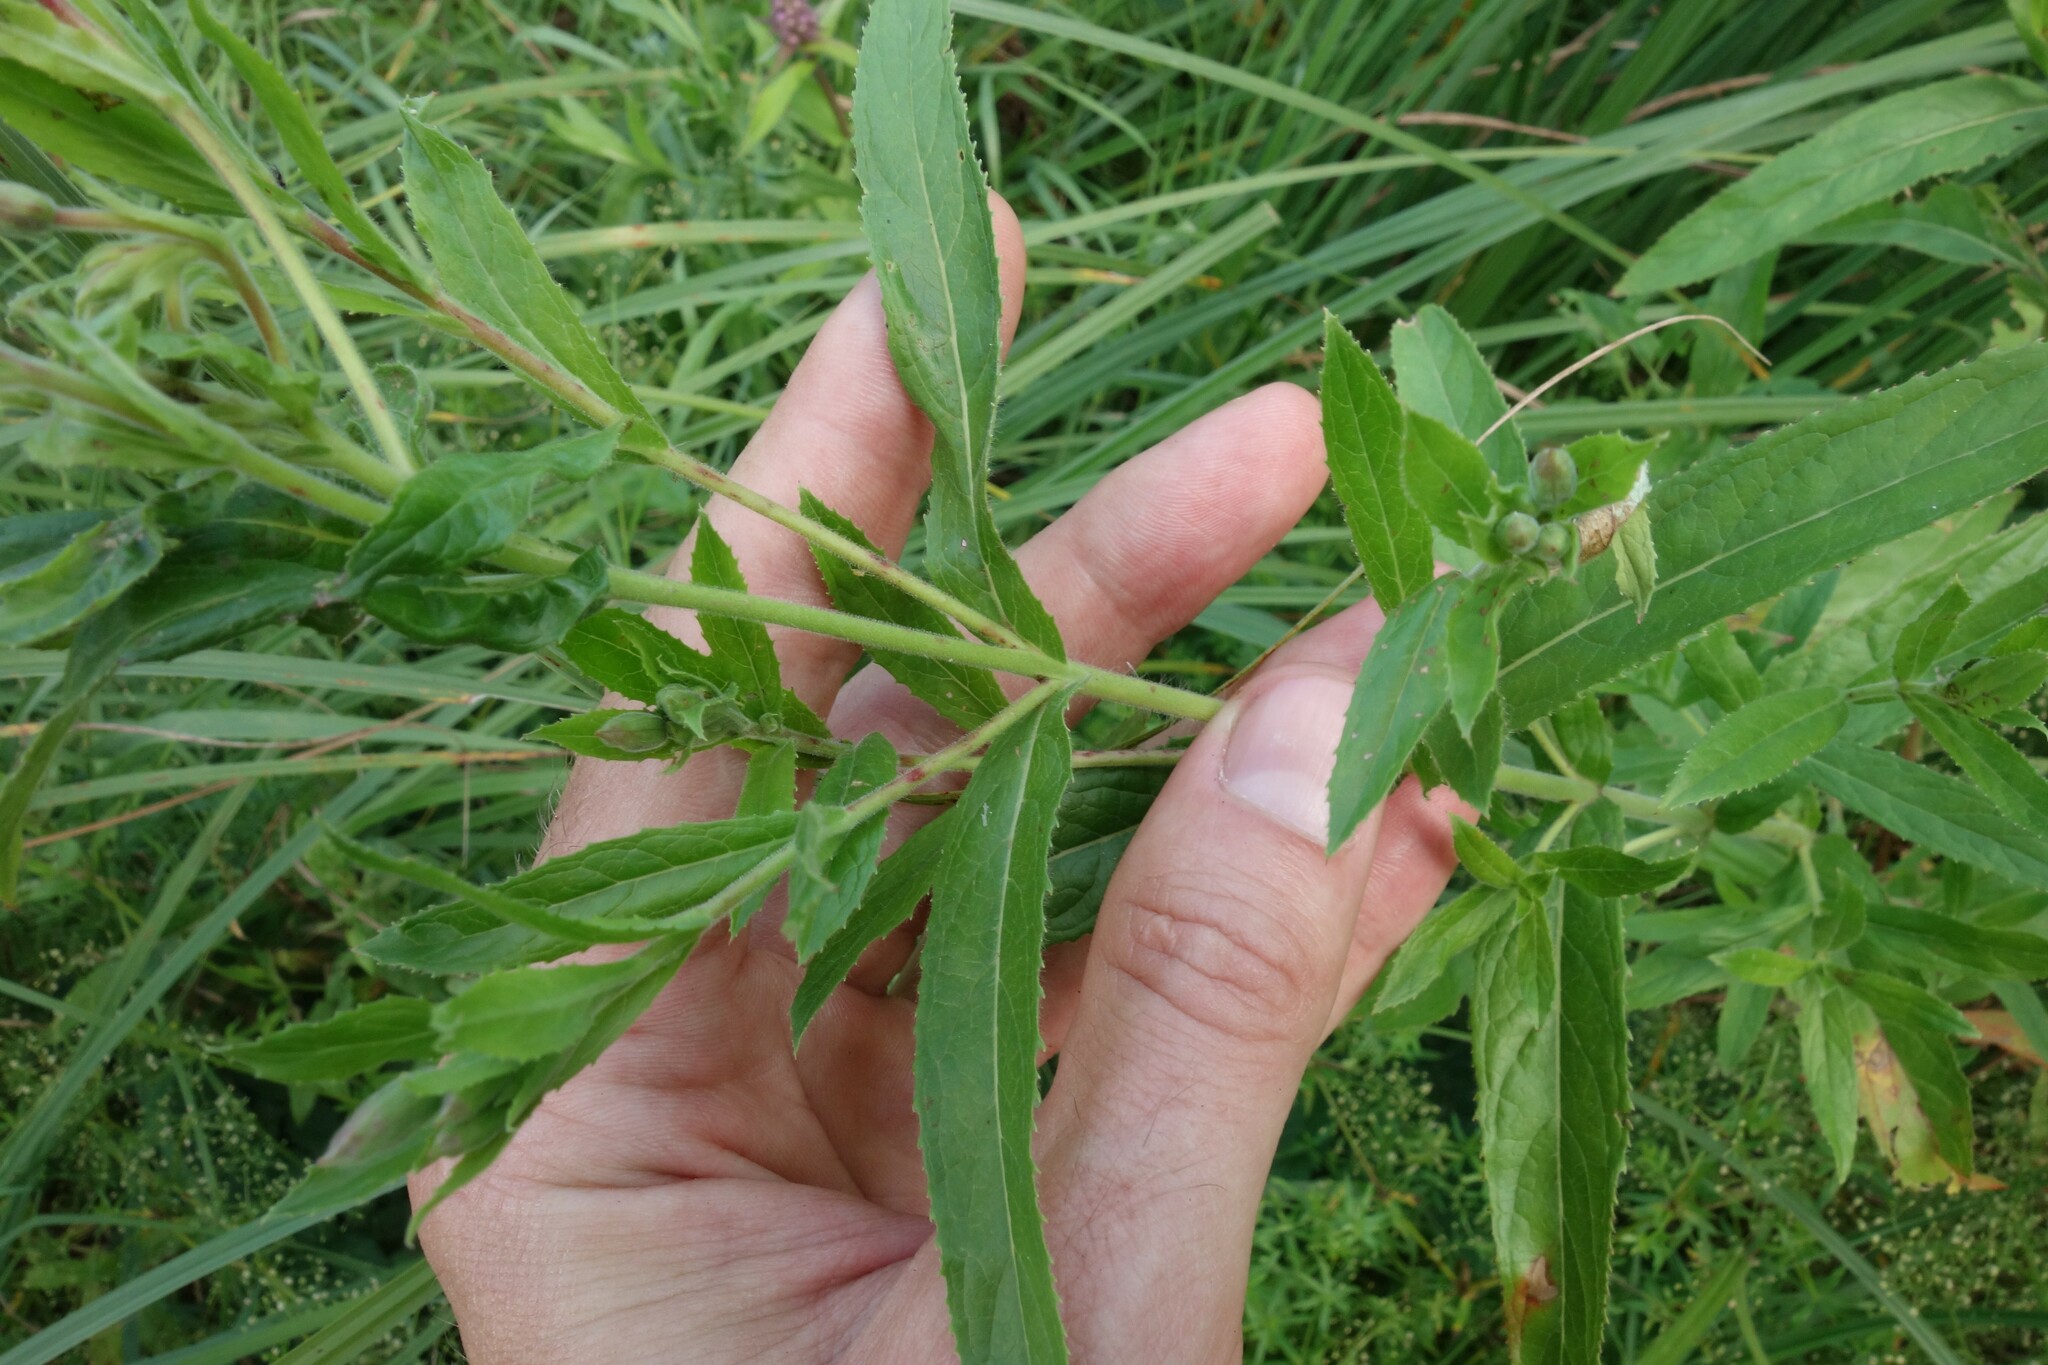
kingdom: Plantae
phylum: Tracheophyta
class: Magnoliopsida
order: Myrtales
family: Onagraceae
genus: Epilobium
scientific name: Epilobium hirsutum
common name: Great willowherb
